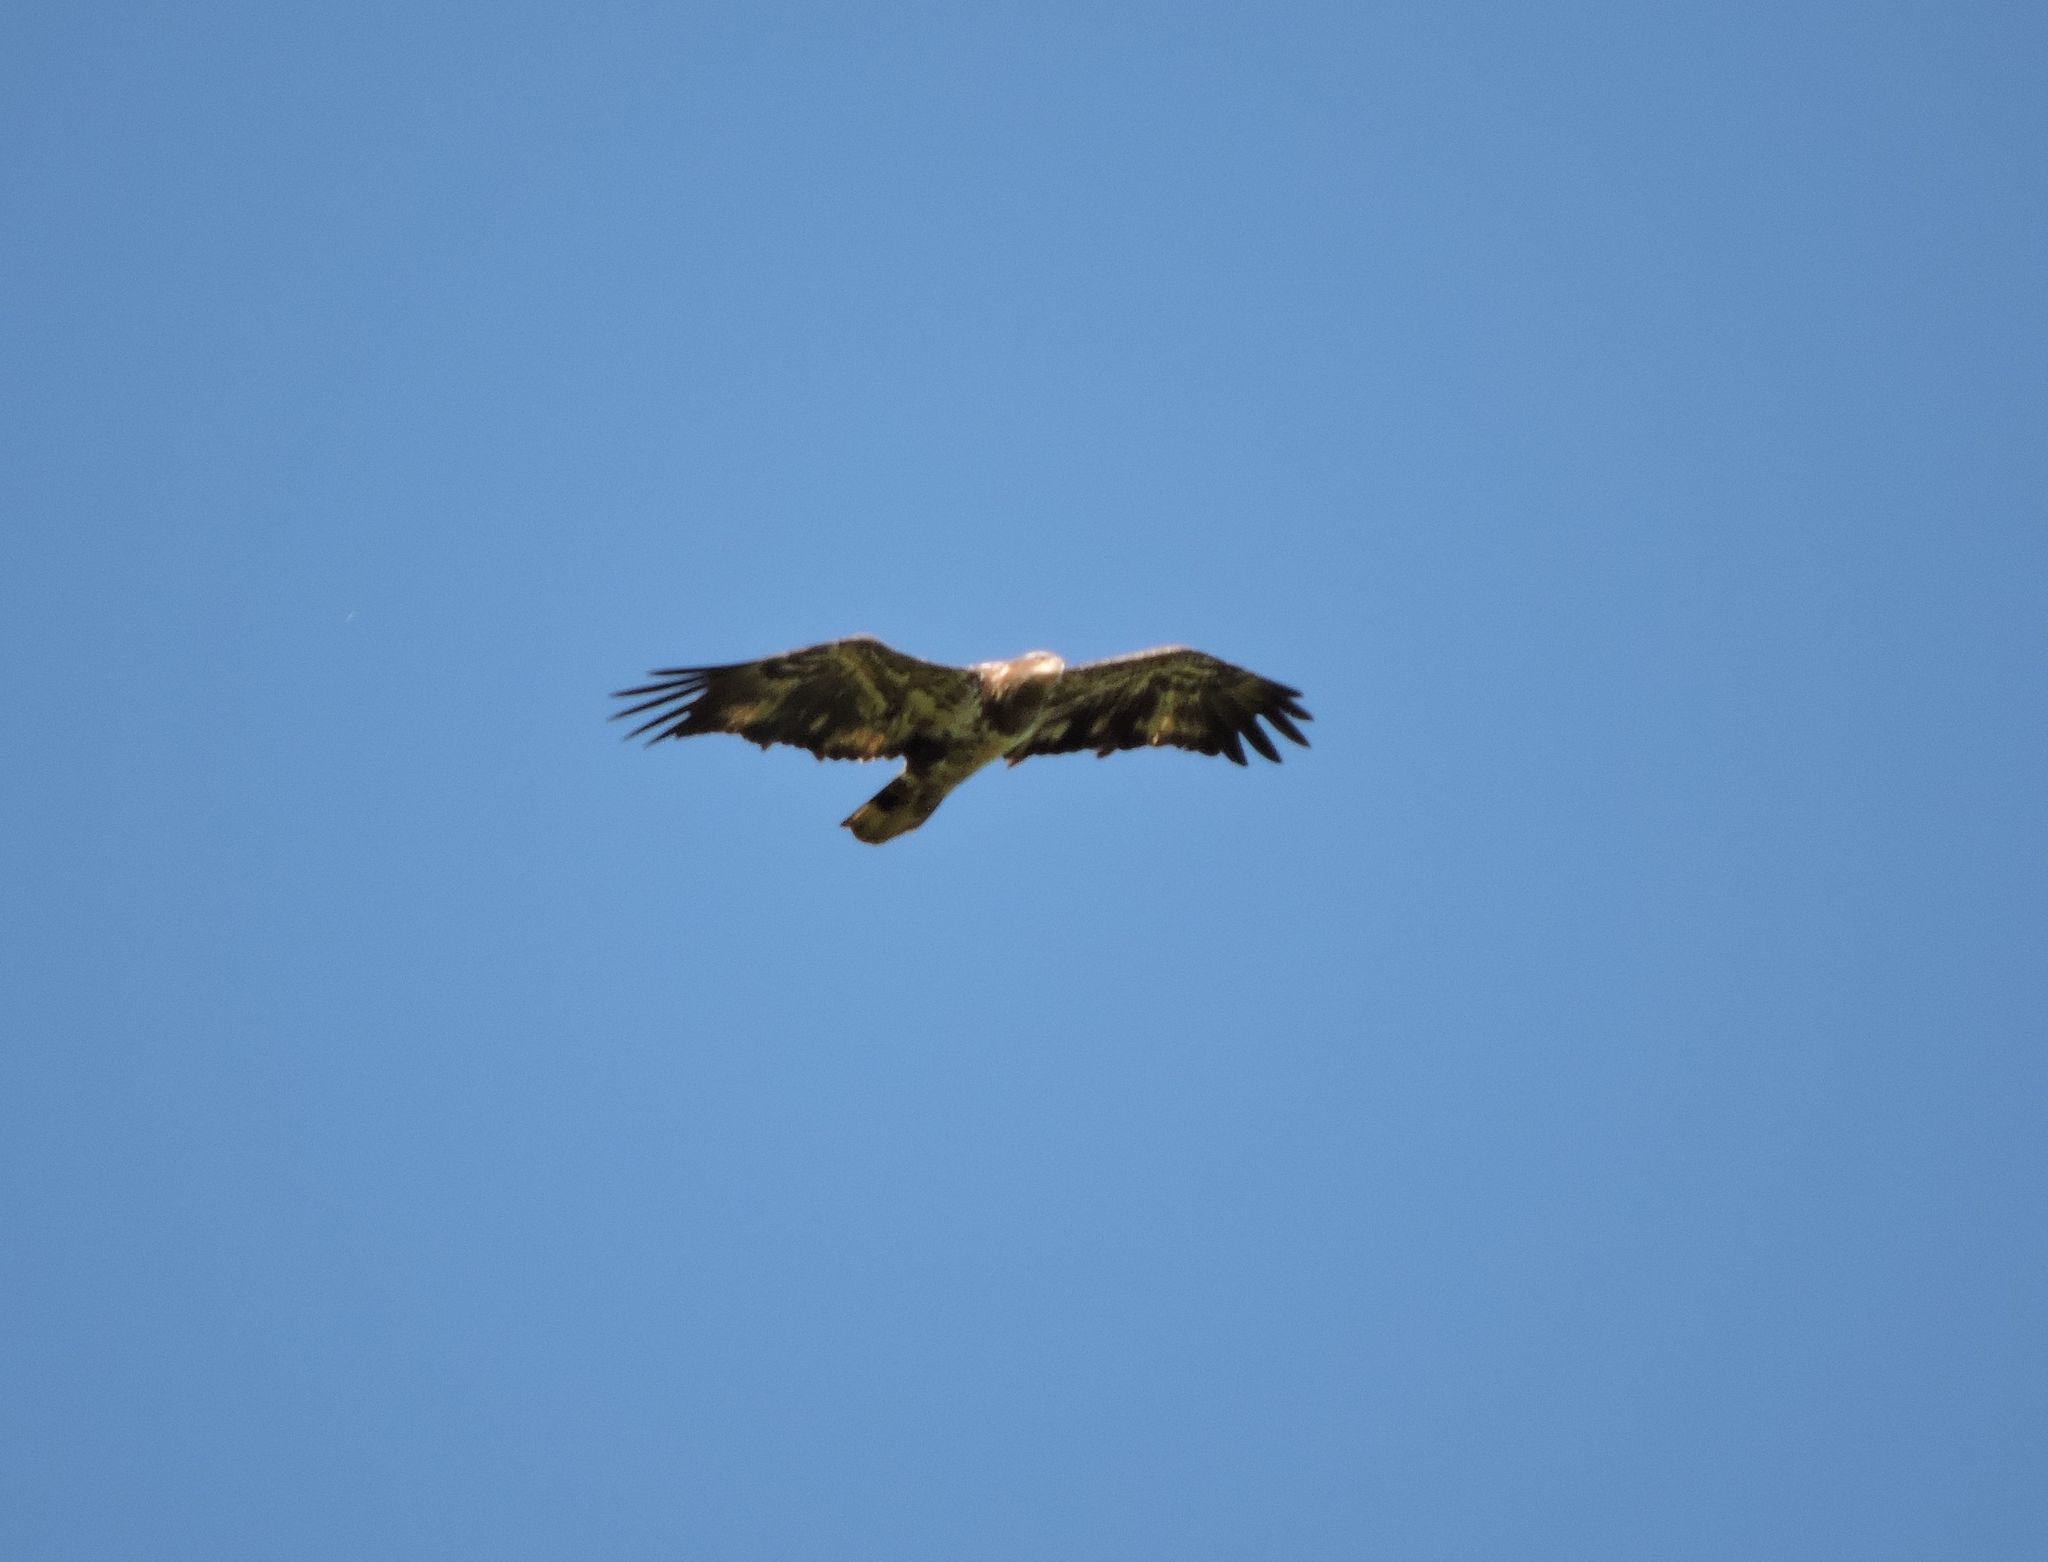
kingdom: Animalia
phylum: Chordata
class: Aves
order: Accipitriformes
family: Accipitridae
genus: Haliaeetus
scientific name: Haliaeetus leucocephalus
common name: Bald eagle
